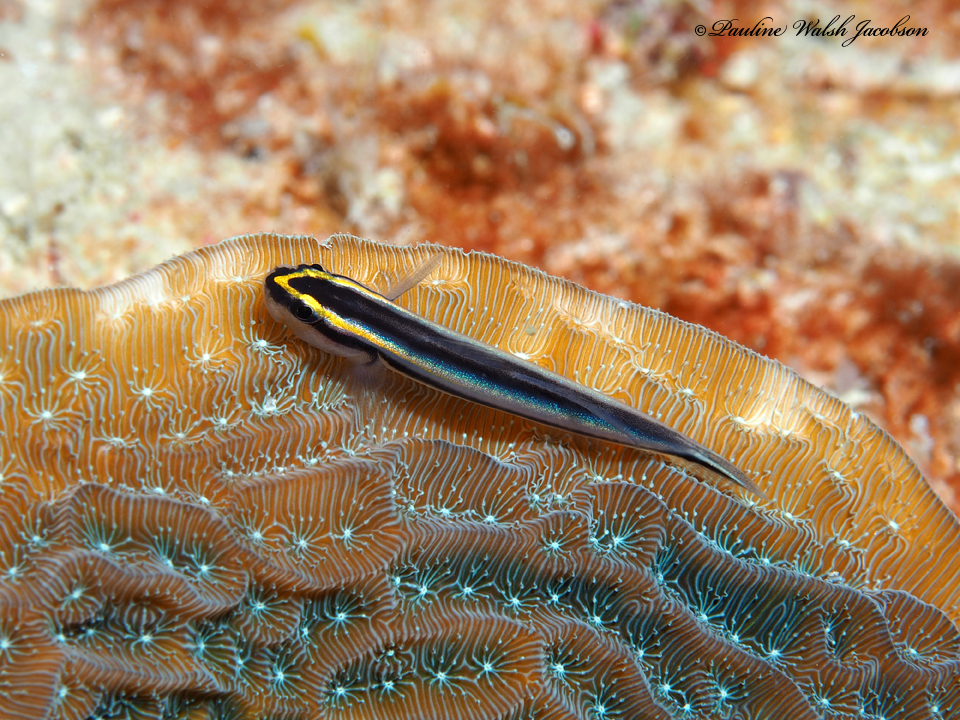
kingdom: Animalia
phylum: Chordata
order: Perciformes
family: Gobiidae
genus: Elacatinus
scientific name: Elacatinus evelynae
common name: Sharknose goby
